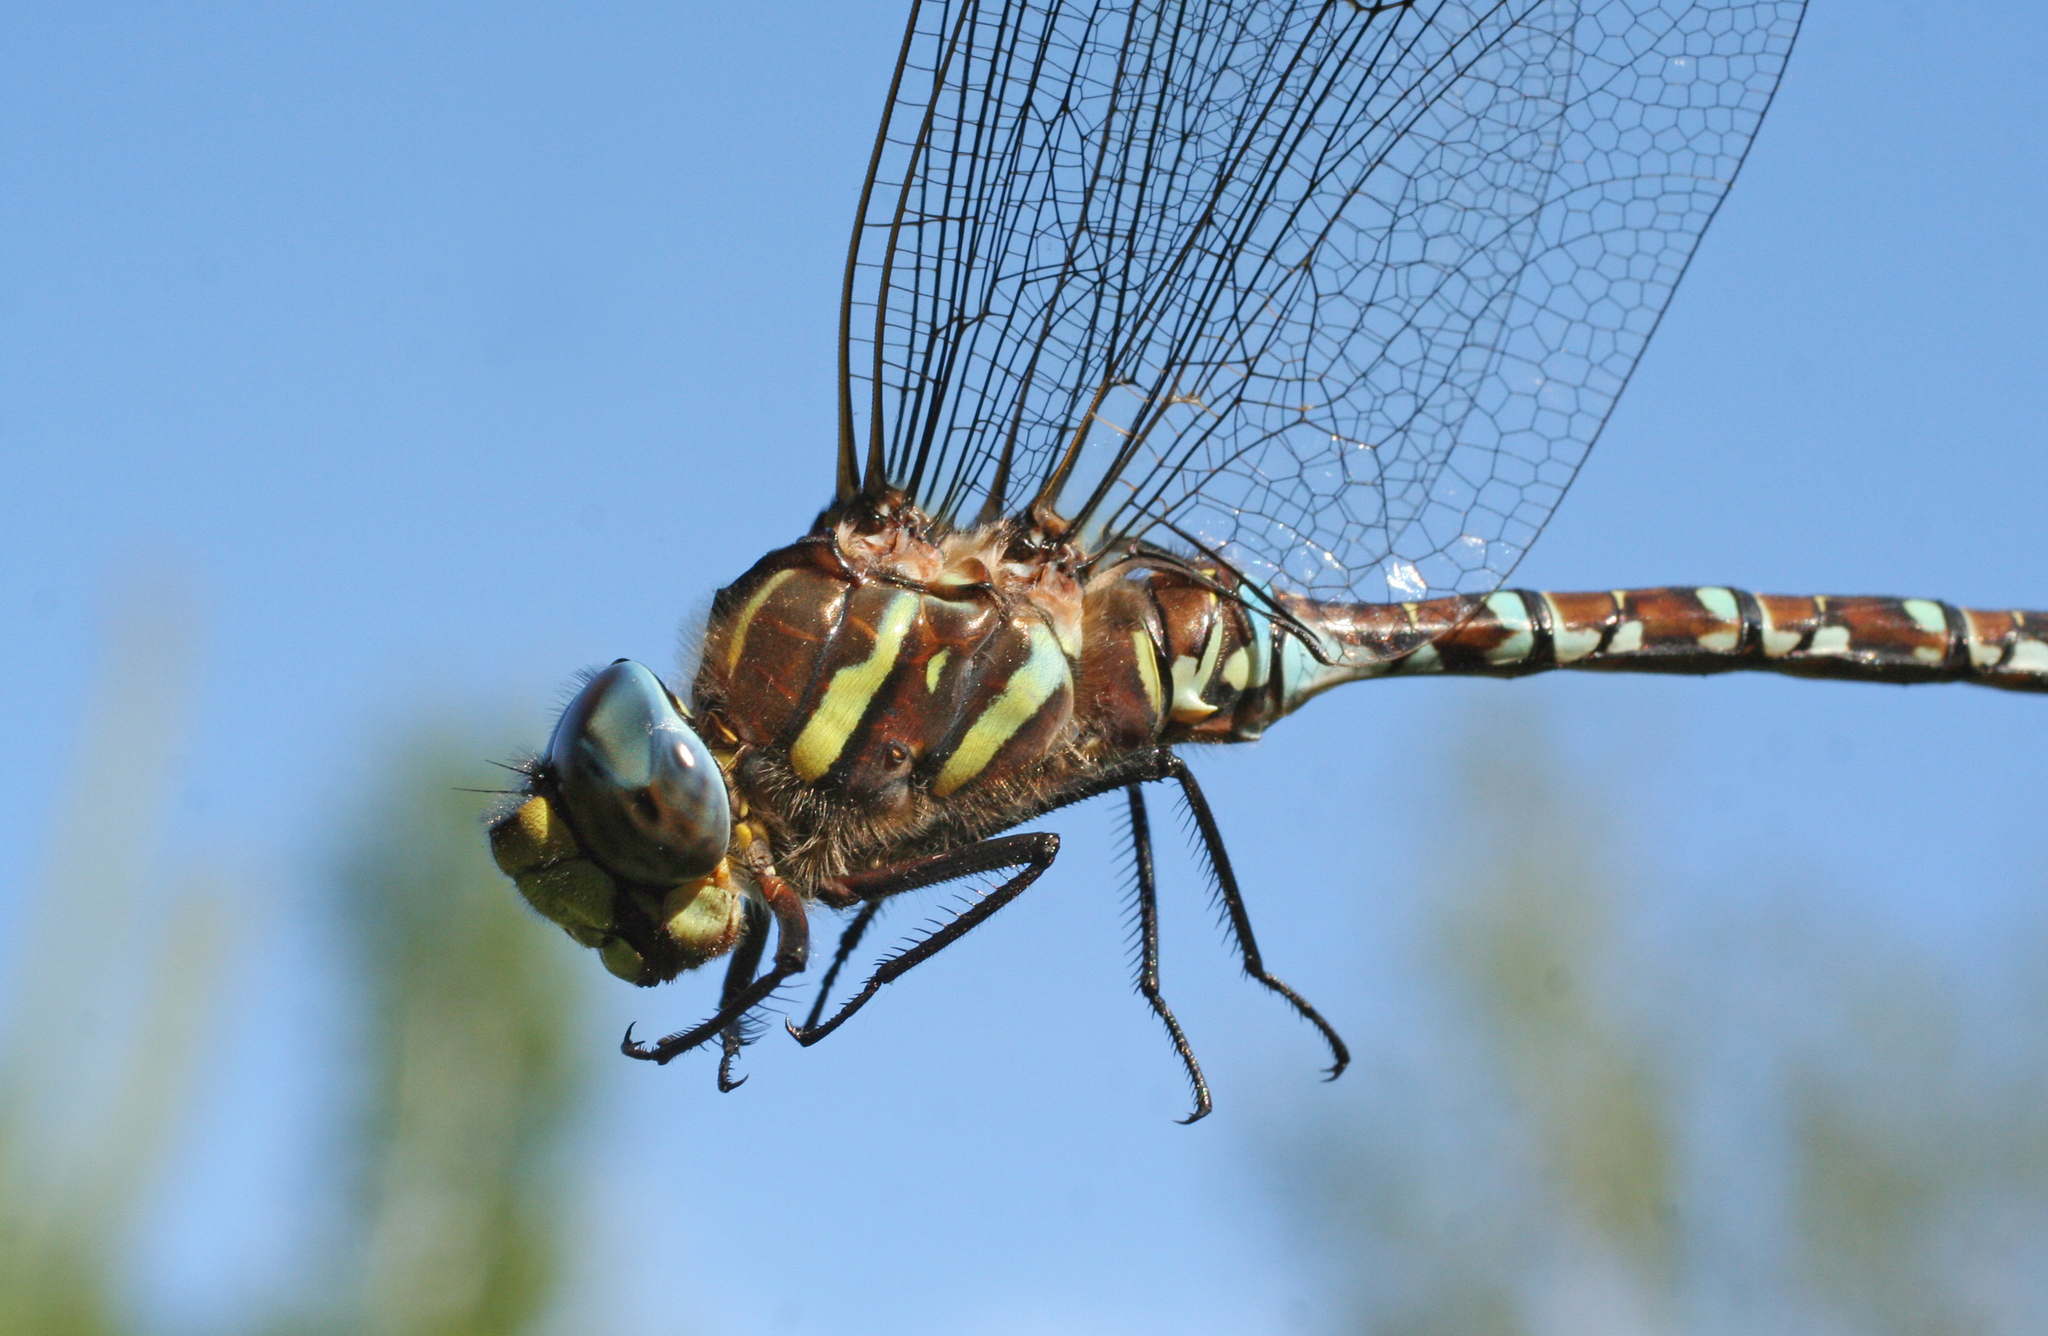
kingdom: Animalia
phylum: Arthropoda
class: Insecta
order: Odonata
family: Aeshnidae
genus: Aeshna
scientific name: Aeshna juncea
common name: Moorland hawker
